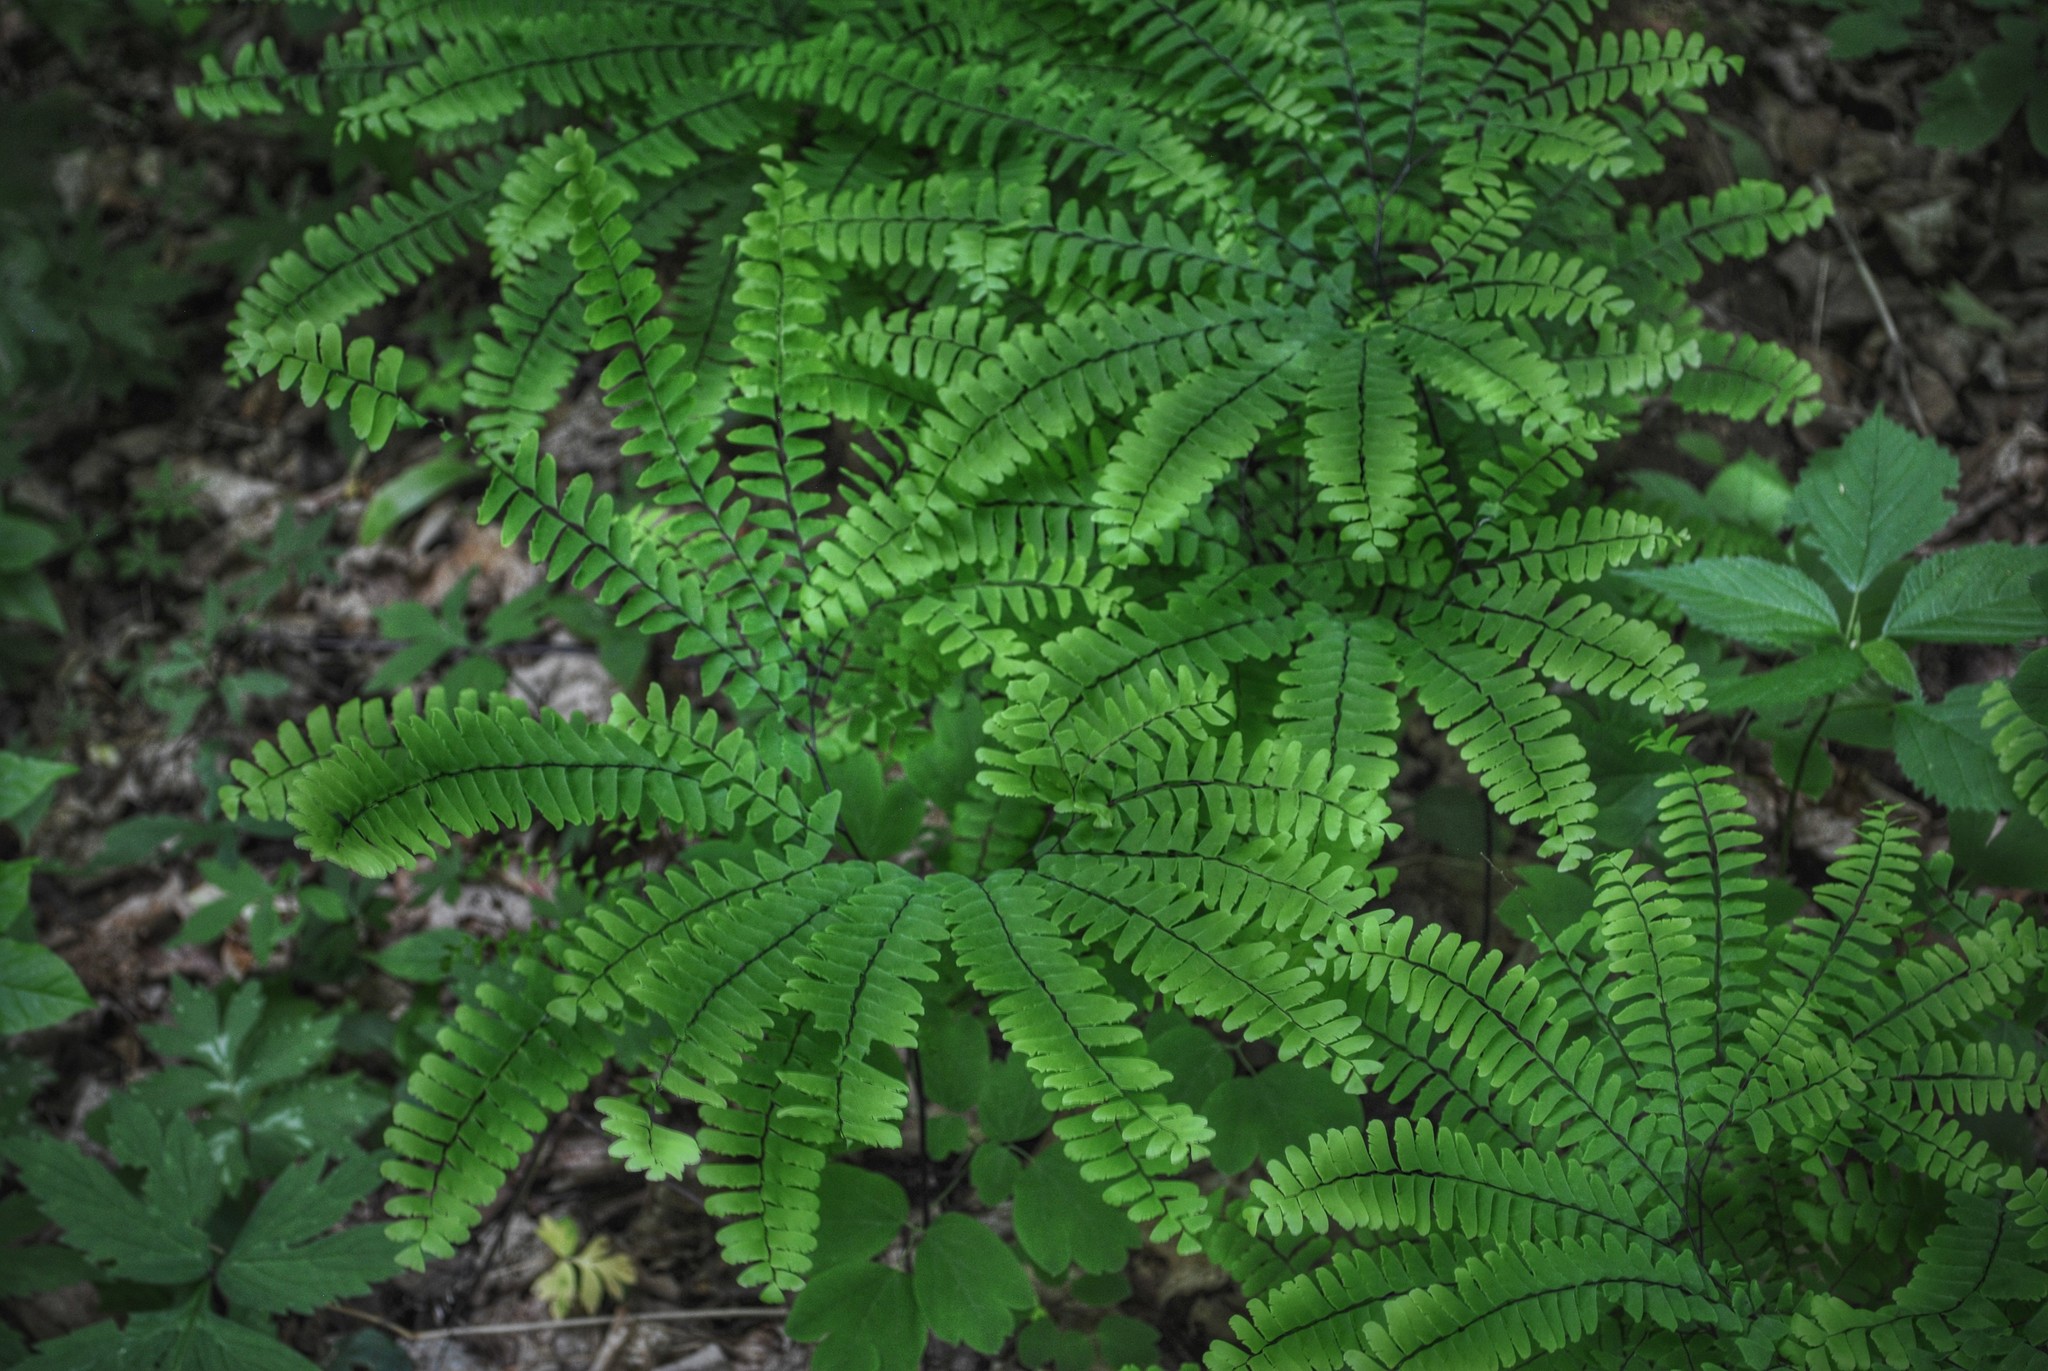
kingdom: Plantae
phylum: Tracheophyta
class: Polypodiopsida
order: Polypodiales
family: Pteridaceae
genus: Adiantum
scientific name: Adiantum pedatum
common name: Five-finger fern
